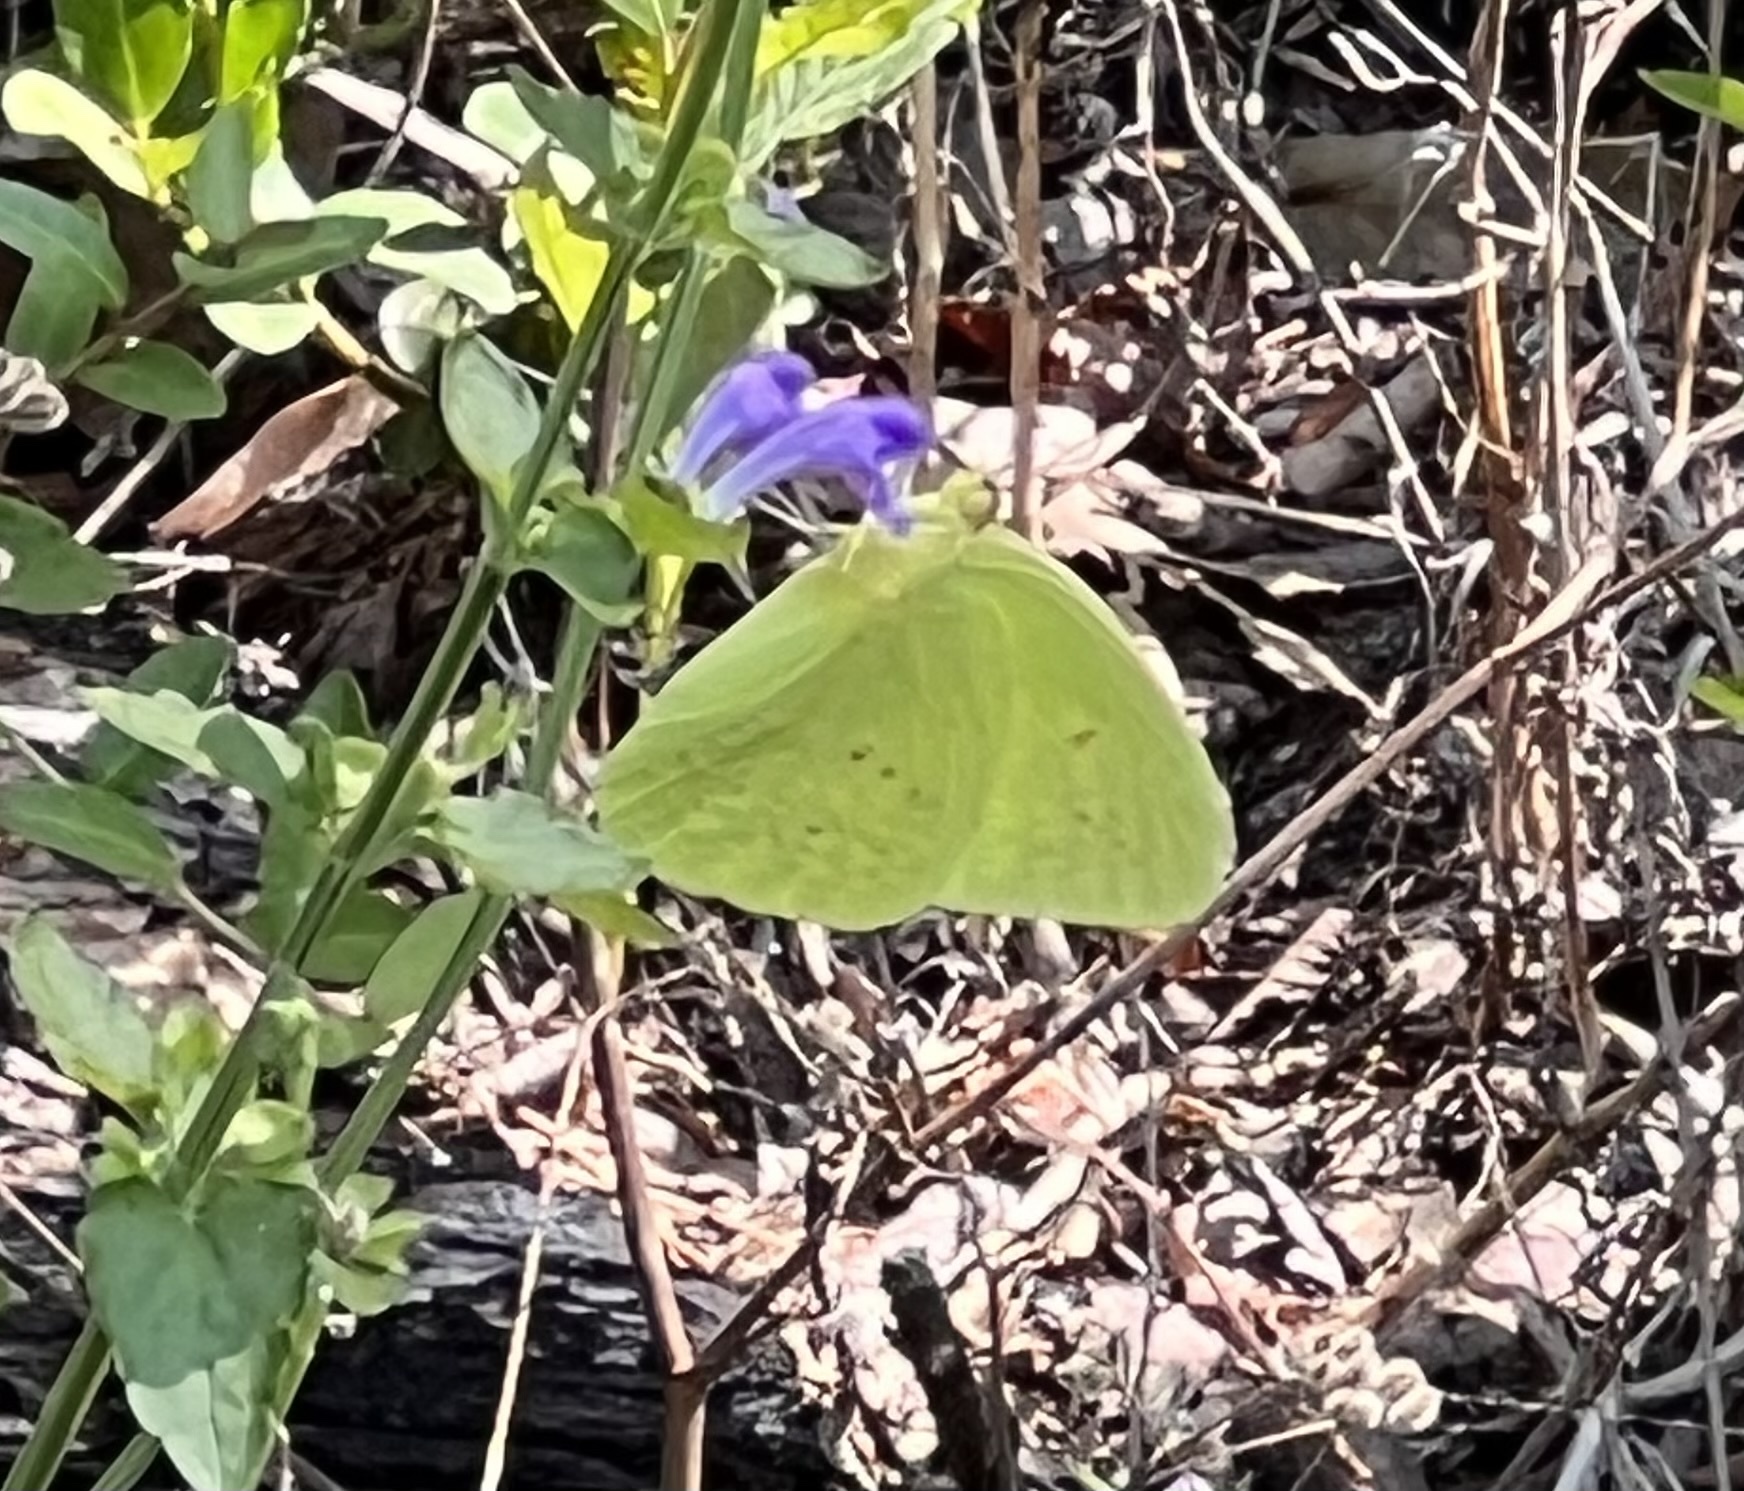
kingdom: Animalia
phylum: Arthropoda
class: Insecta
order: Lepidoptera
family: Pieridae
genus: Phoebis
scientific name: Phoebis sennae
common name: Cloudless sulphur
